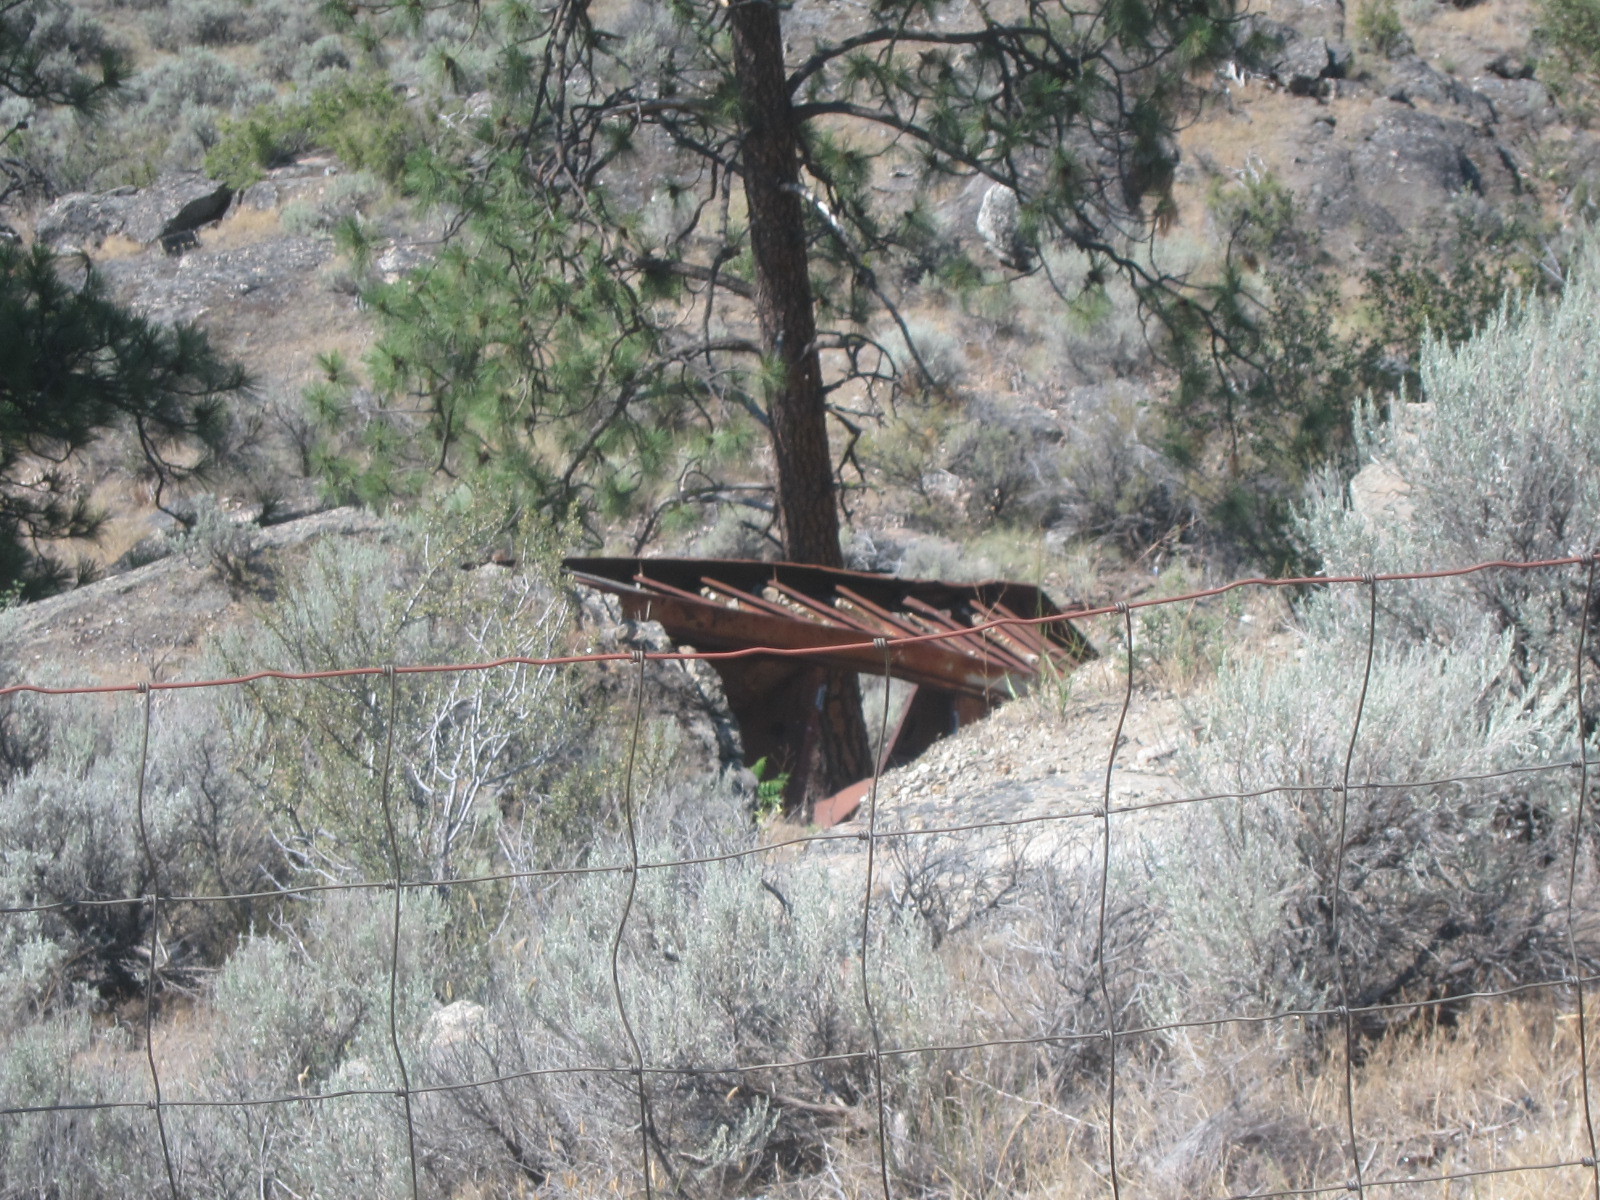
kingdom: Plantae
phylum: Tracheophyta
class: Magnoliopsida
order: Asterales
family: Asteraceae
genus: Artemisia
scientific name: Artemisia tridentata
